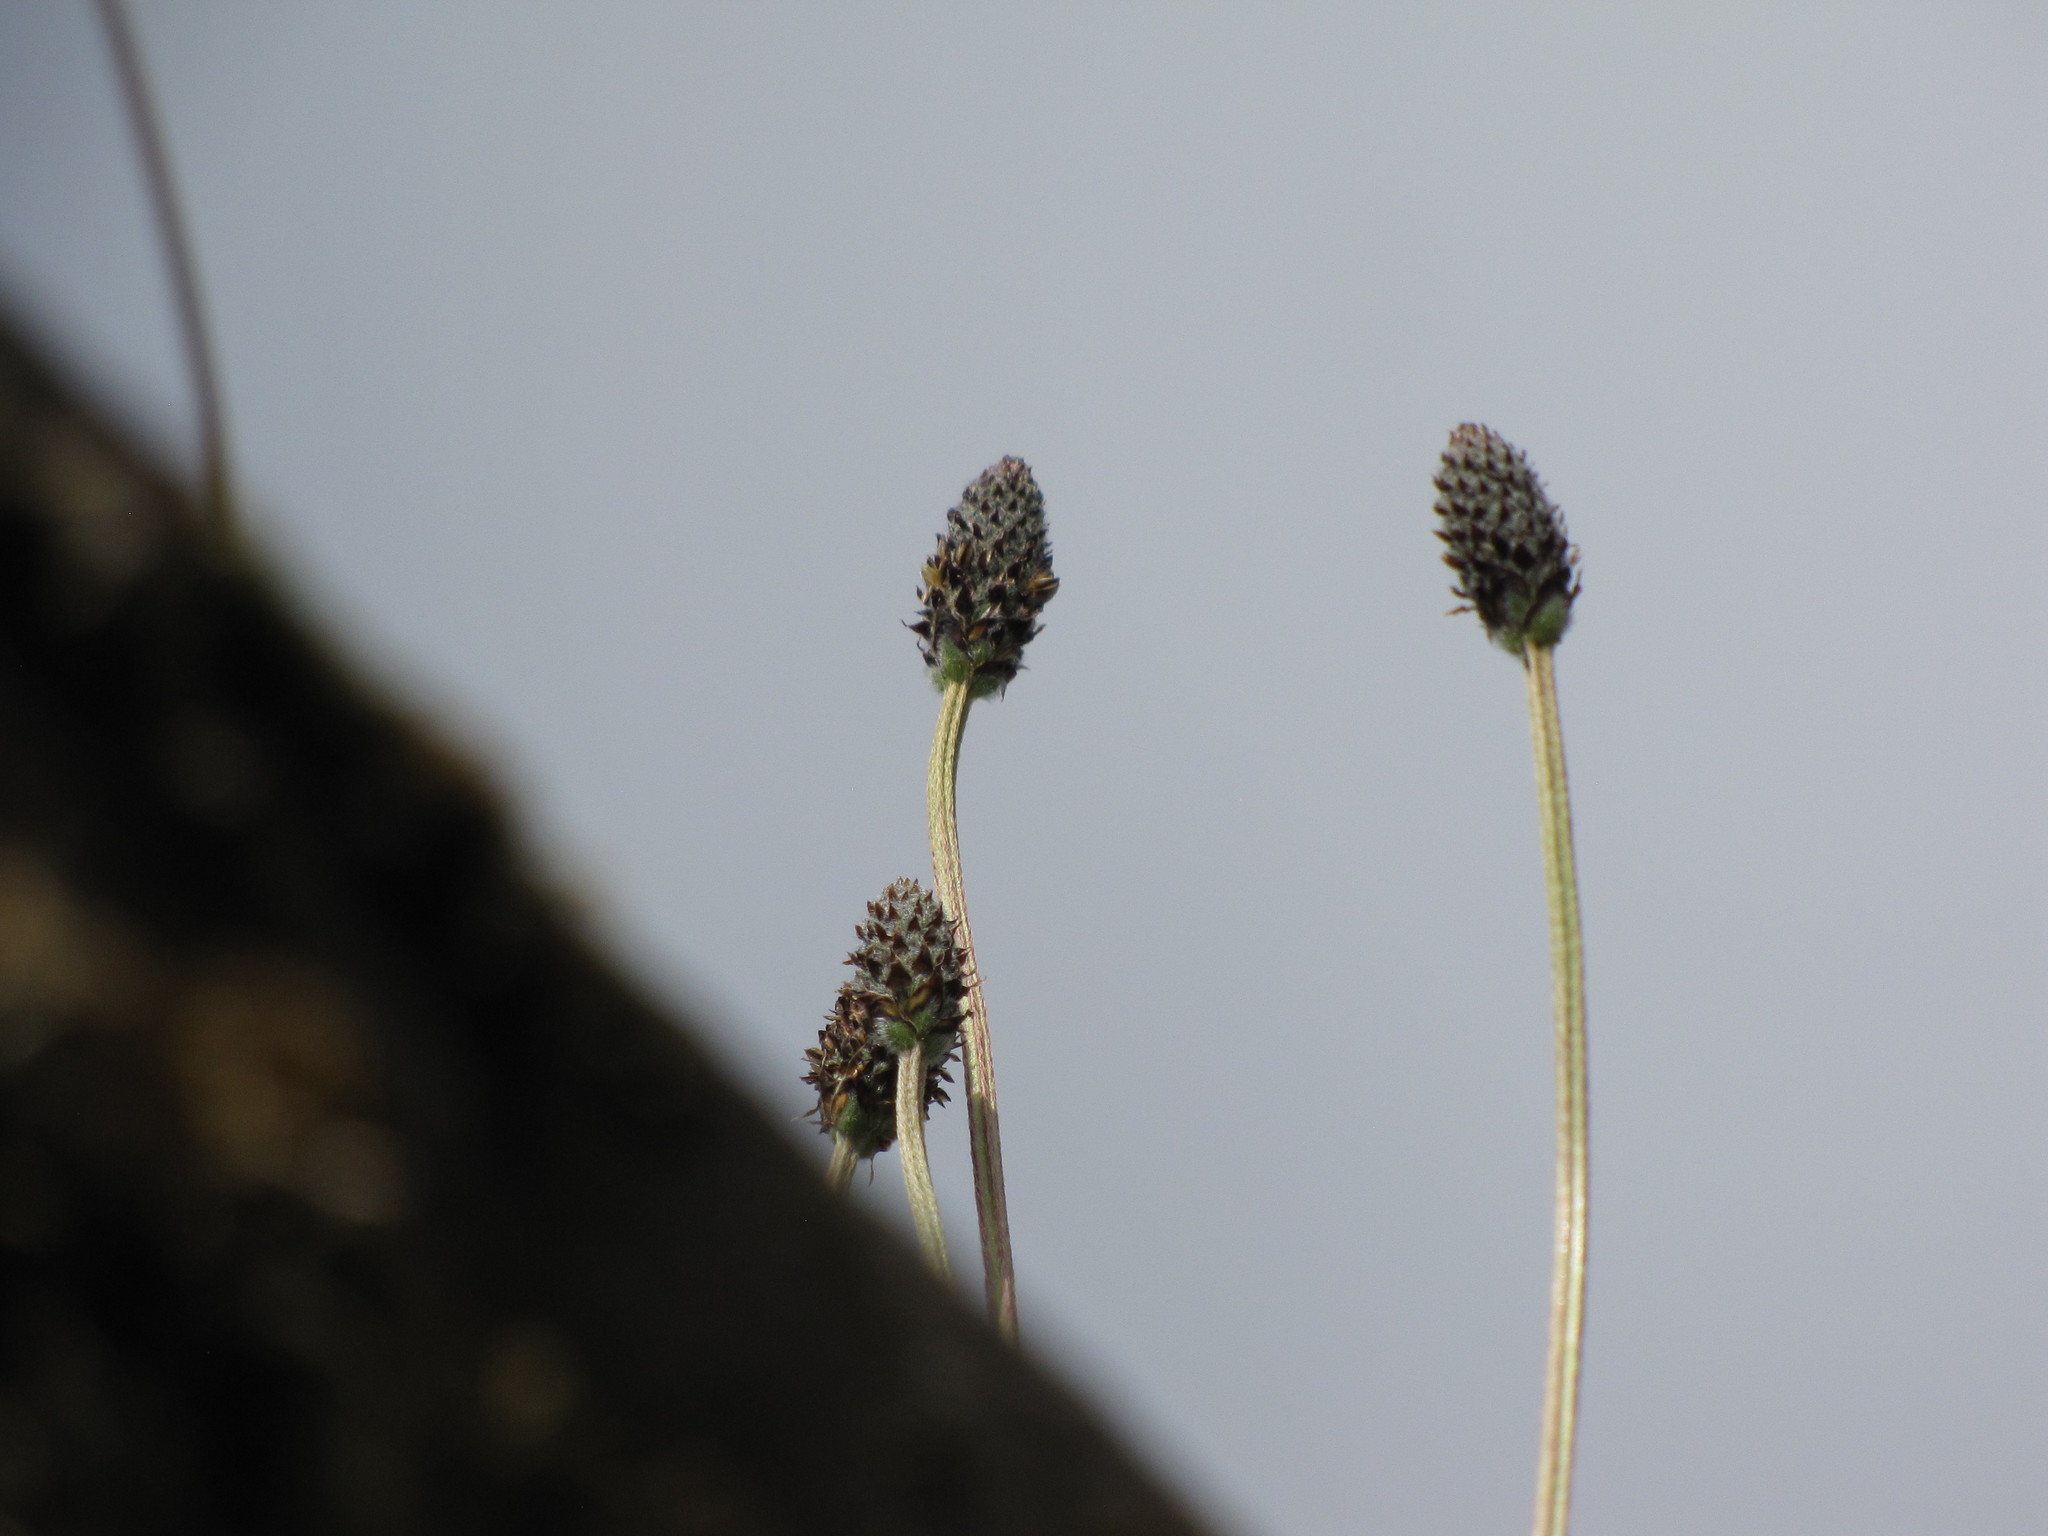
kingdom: Plantae
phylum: Tracheophyta
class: Magnoliopsida
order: Lamiales
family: Plantaginaceae
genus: Plantago
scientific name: Plantago lanceolata
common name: Ribwort plantain
